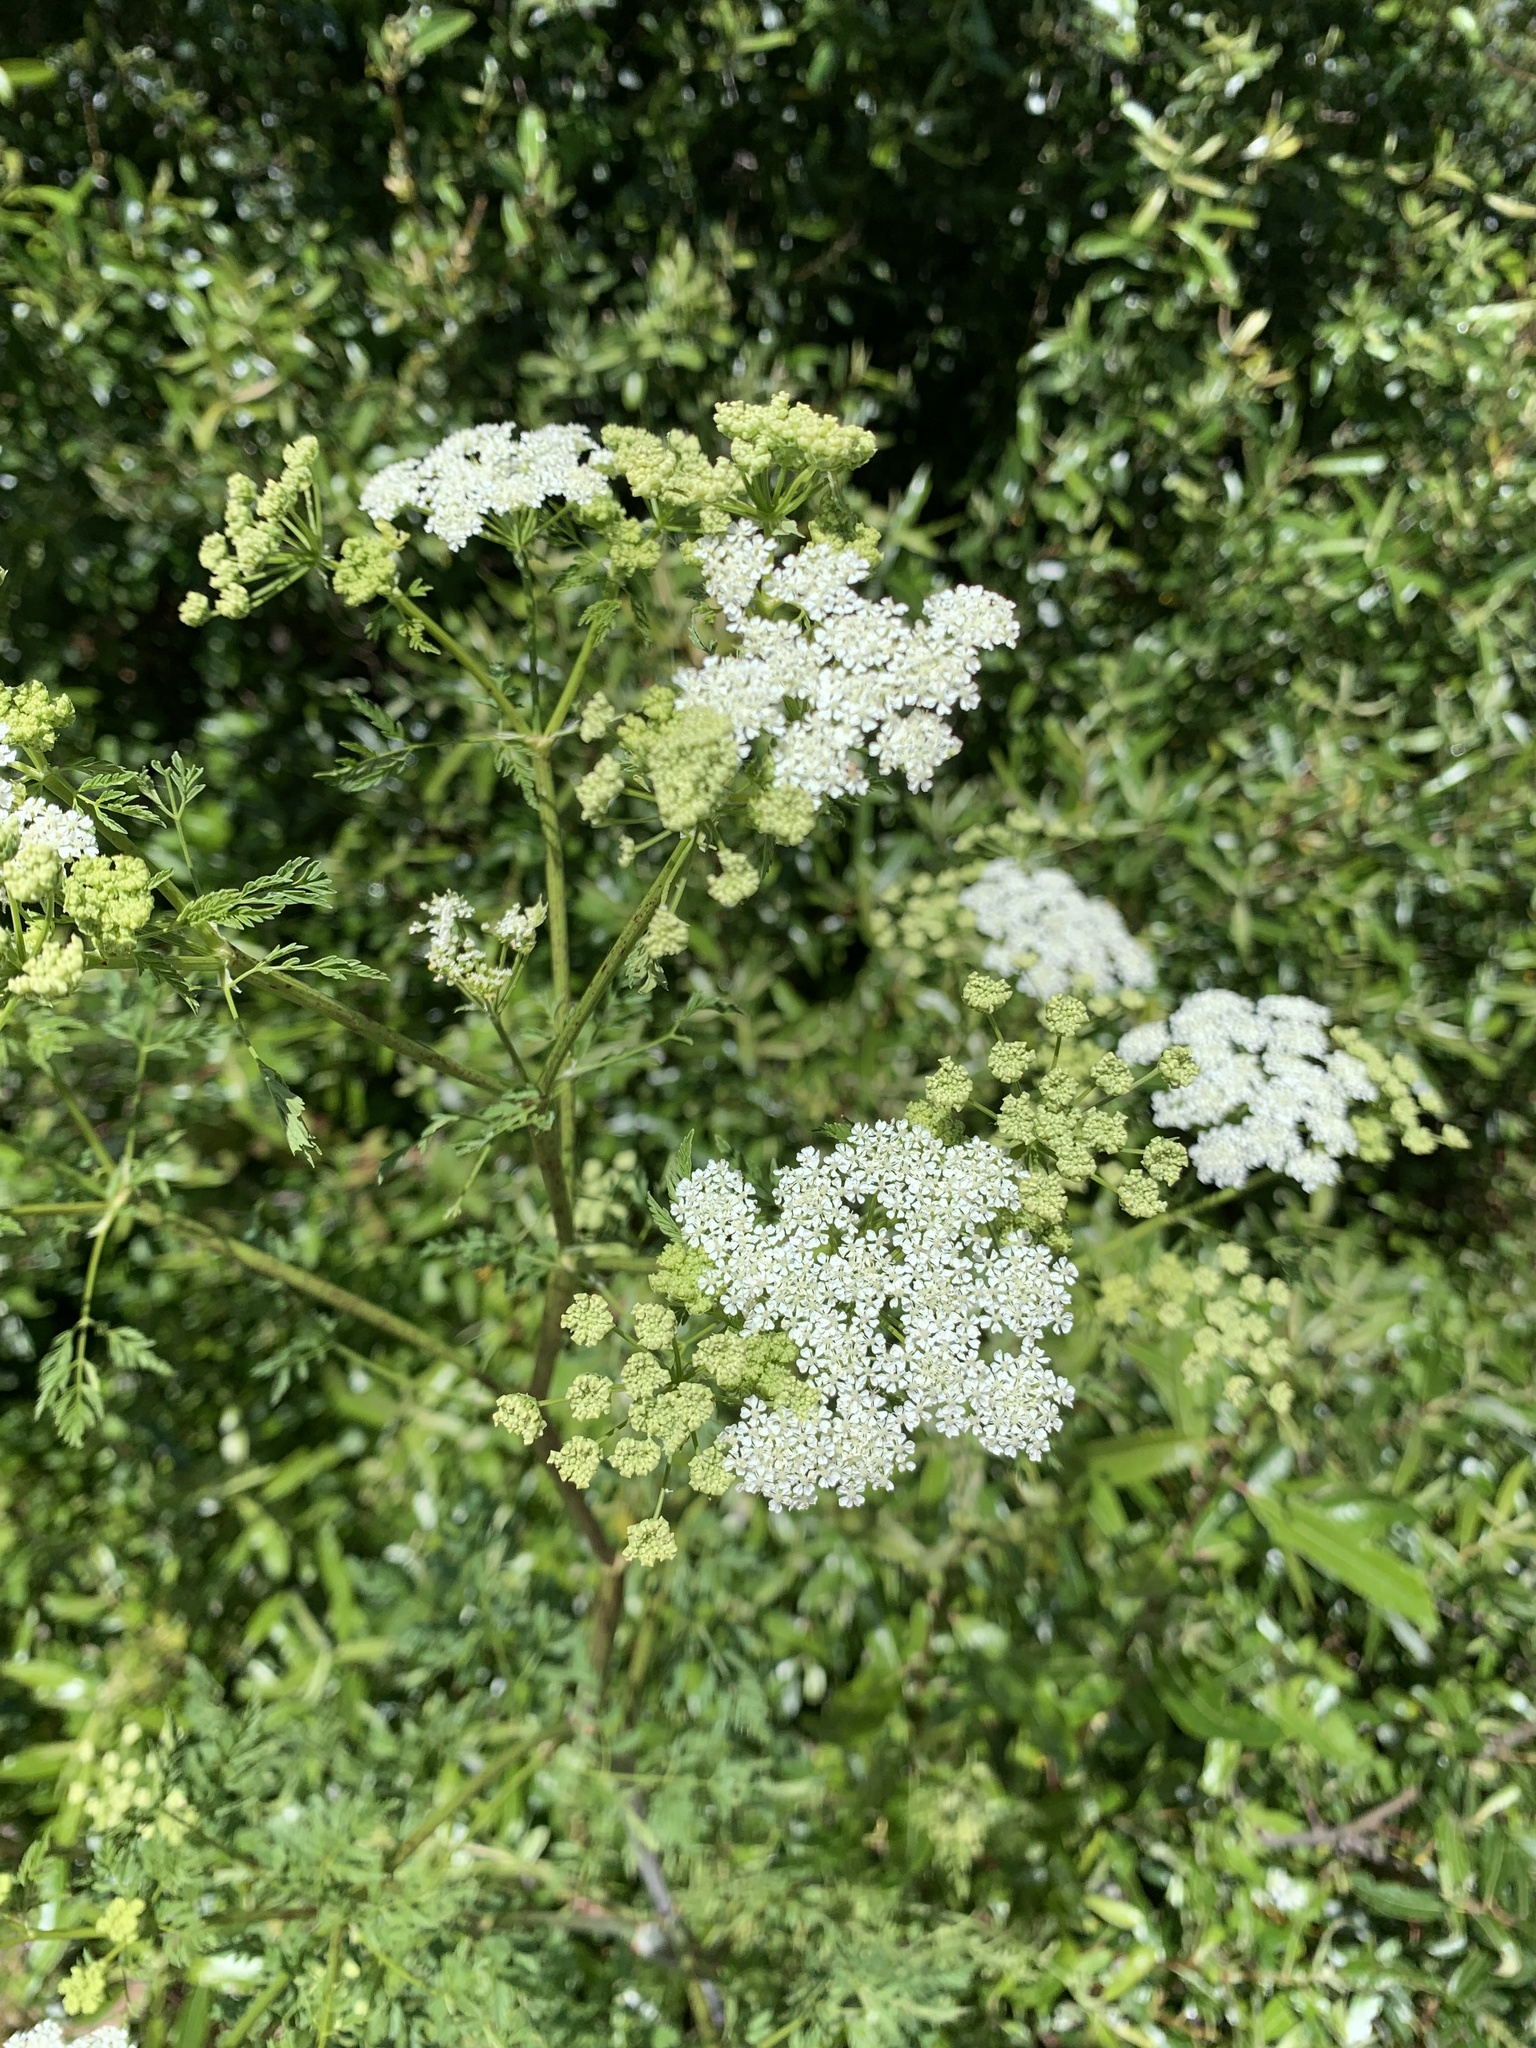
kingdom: Plantae
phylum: Tracheophyta
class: Magnoliopsida
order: Apiales
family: Apiaceae
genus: Conium
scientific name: Conium maculatum
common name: Hemlock
